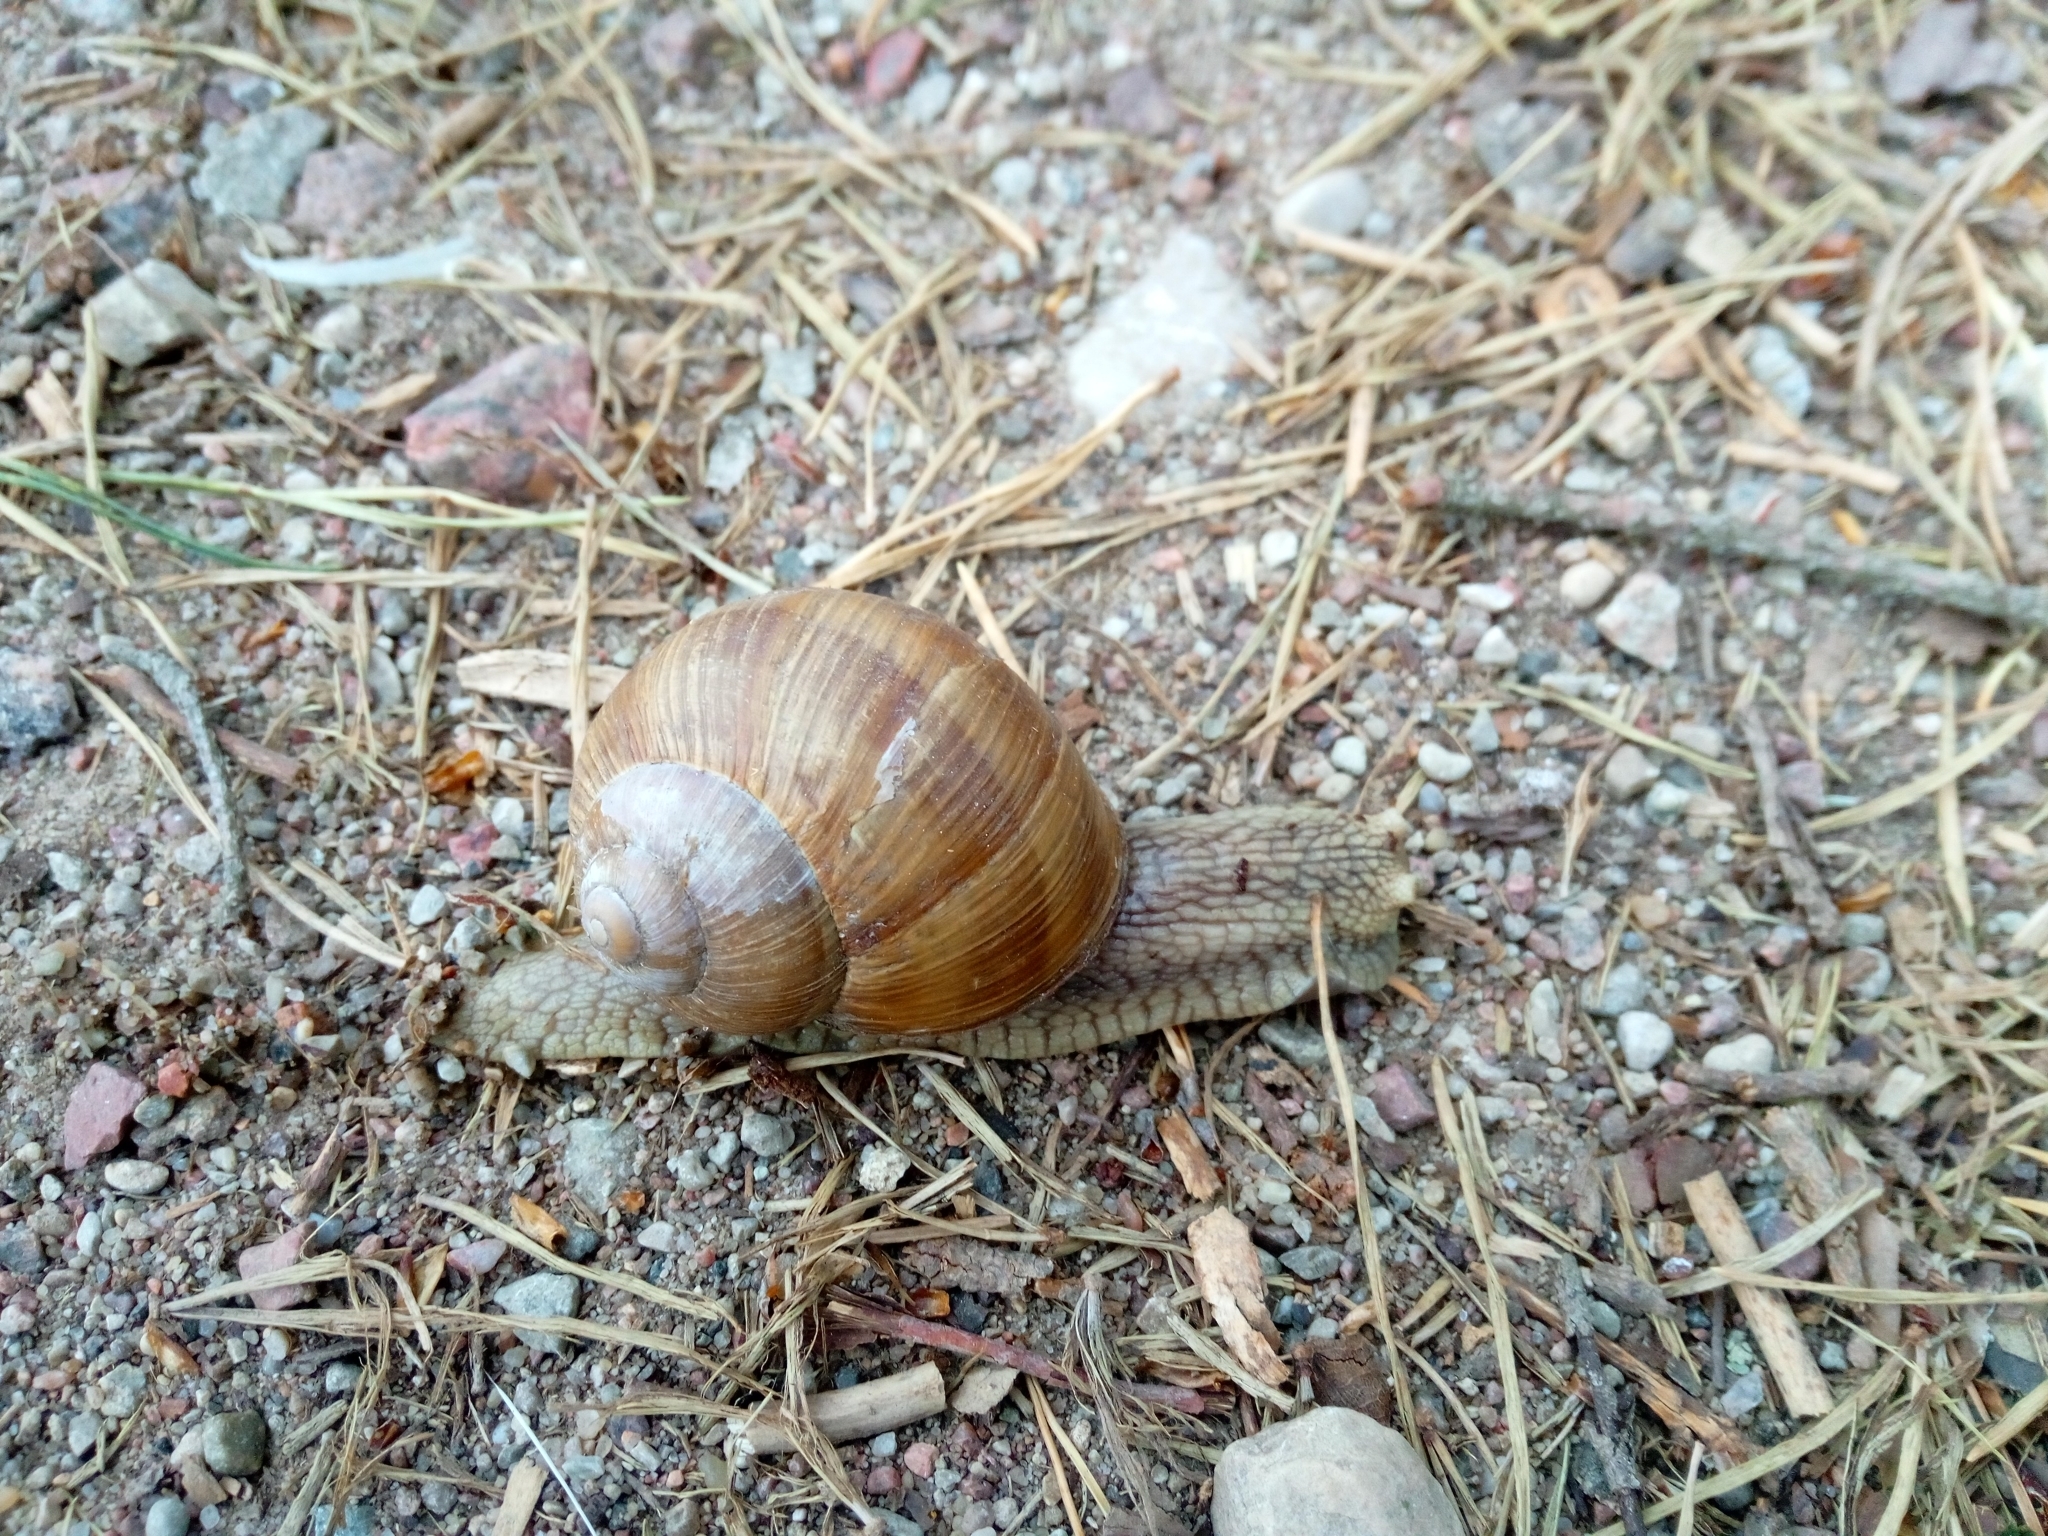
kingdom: Animalia
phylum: Mollusca
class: Gastropoda
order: Stylommatophora
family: Helicidae
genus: Helix
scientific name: Helix pomatia
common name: Roman snail
